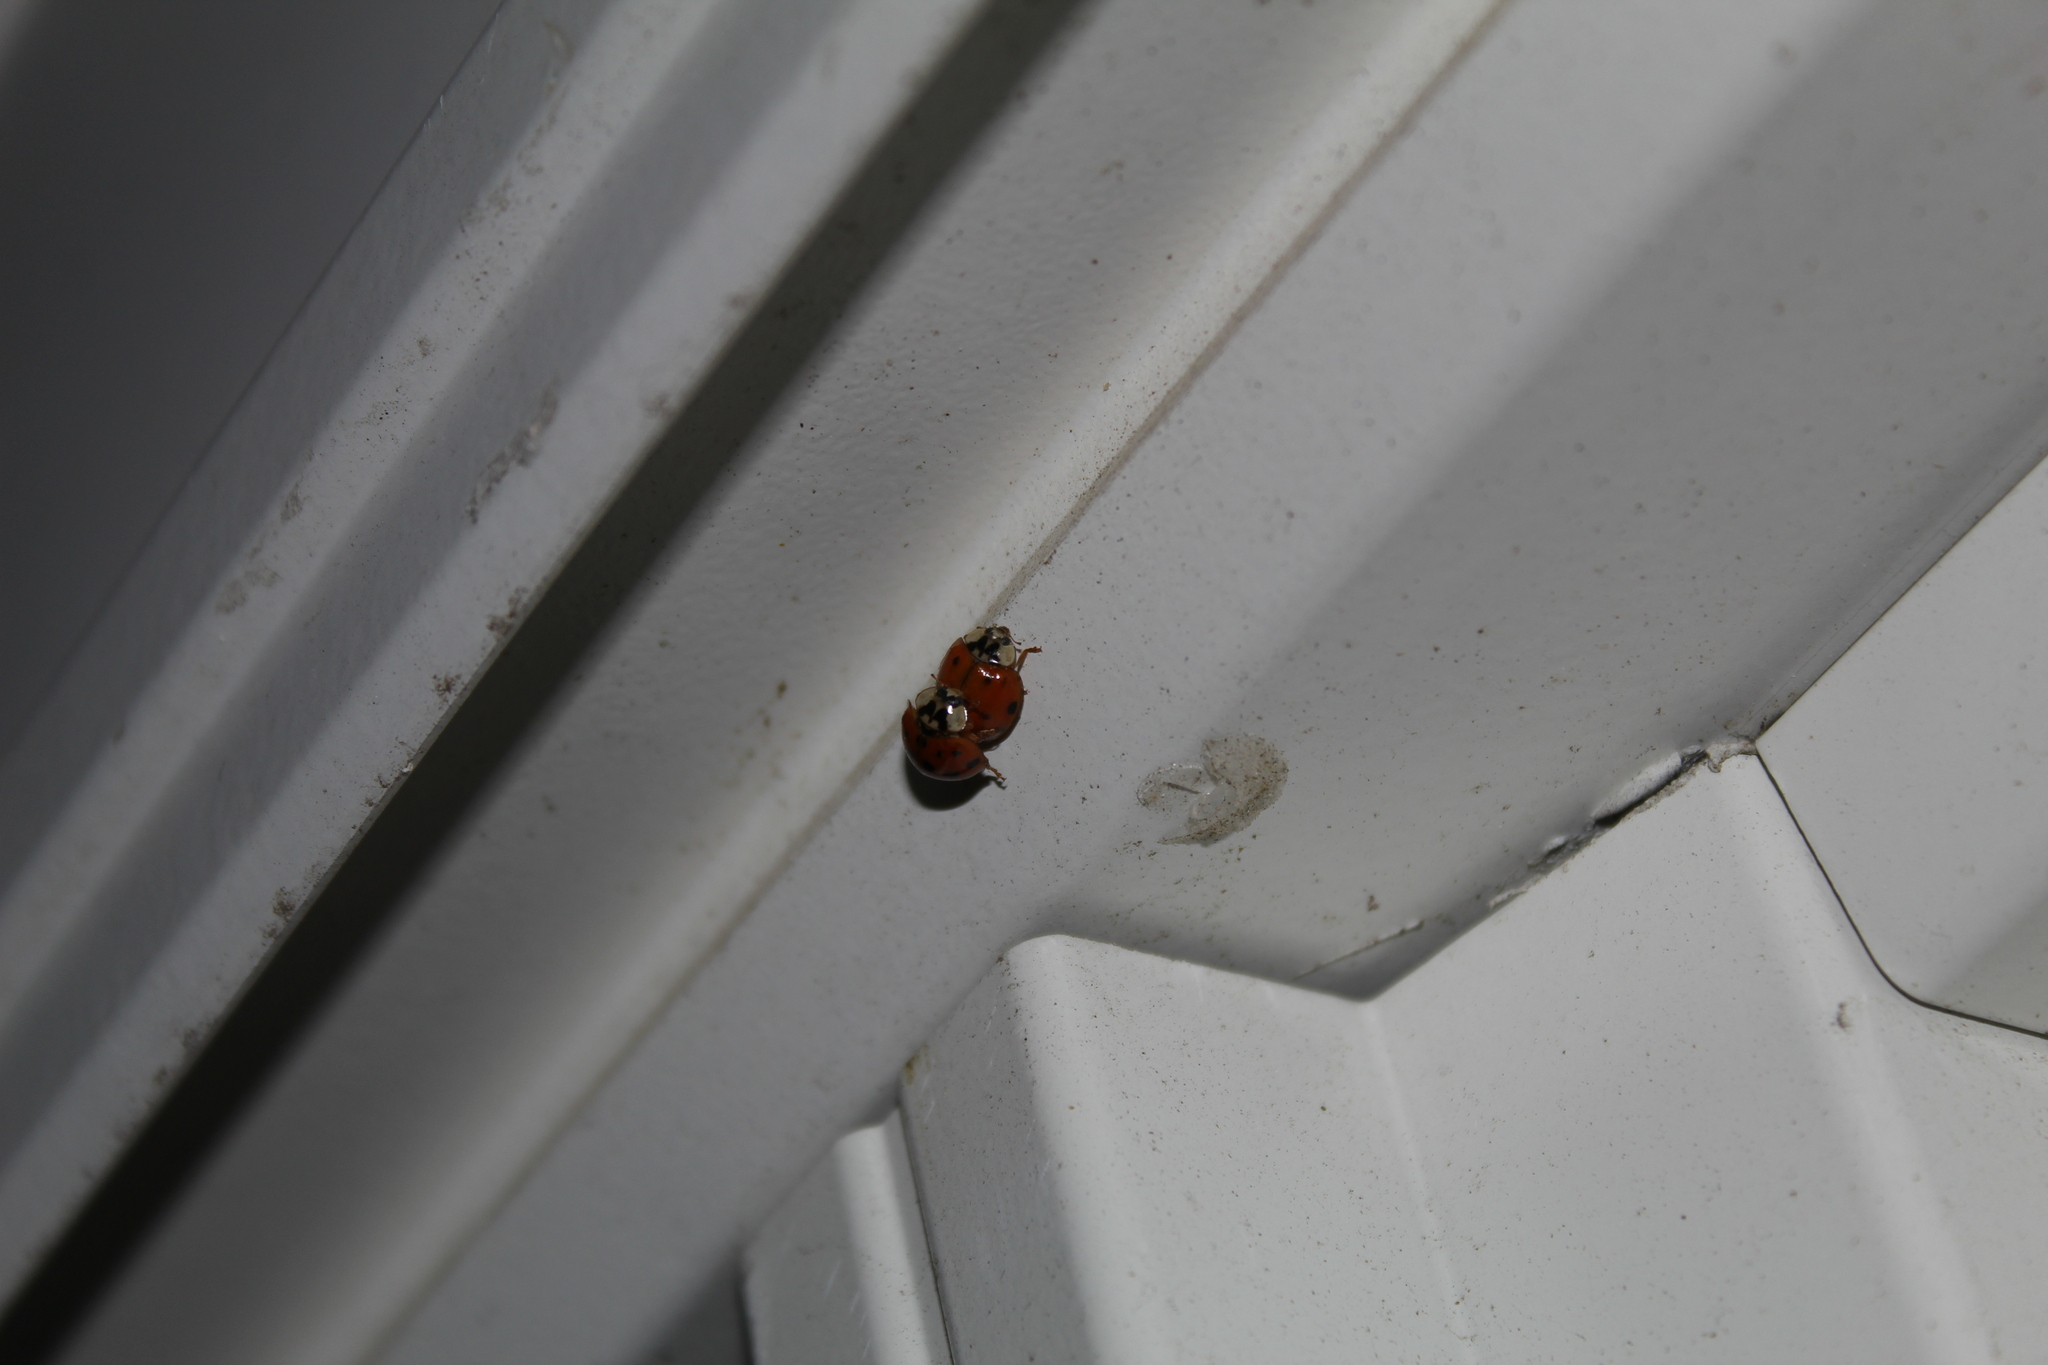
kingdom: Animalia
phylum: Arthropoda
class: Insecta
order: Coleoptera
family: Coccinellidae
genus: Harmonia
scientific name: Harmonia axyridis
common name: Harlequin ladybird
